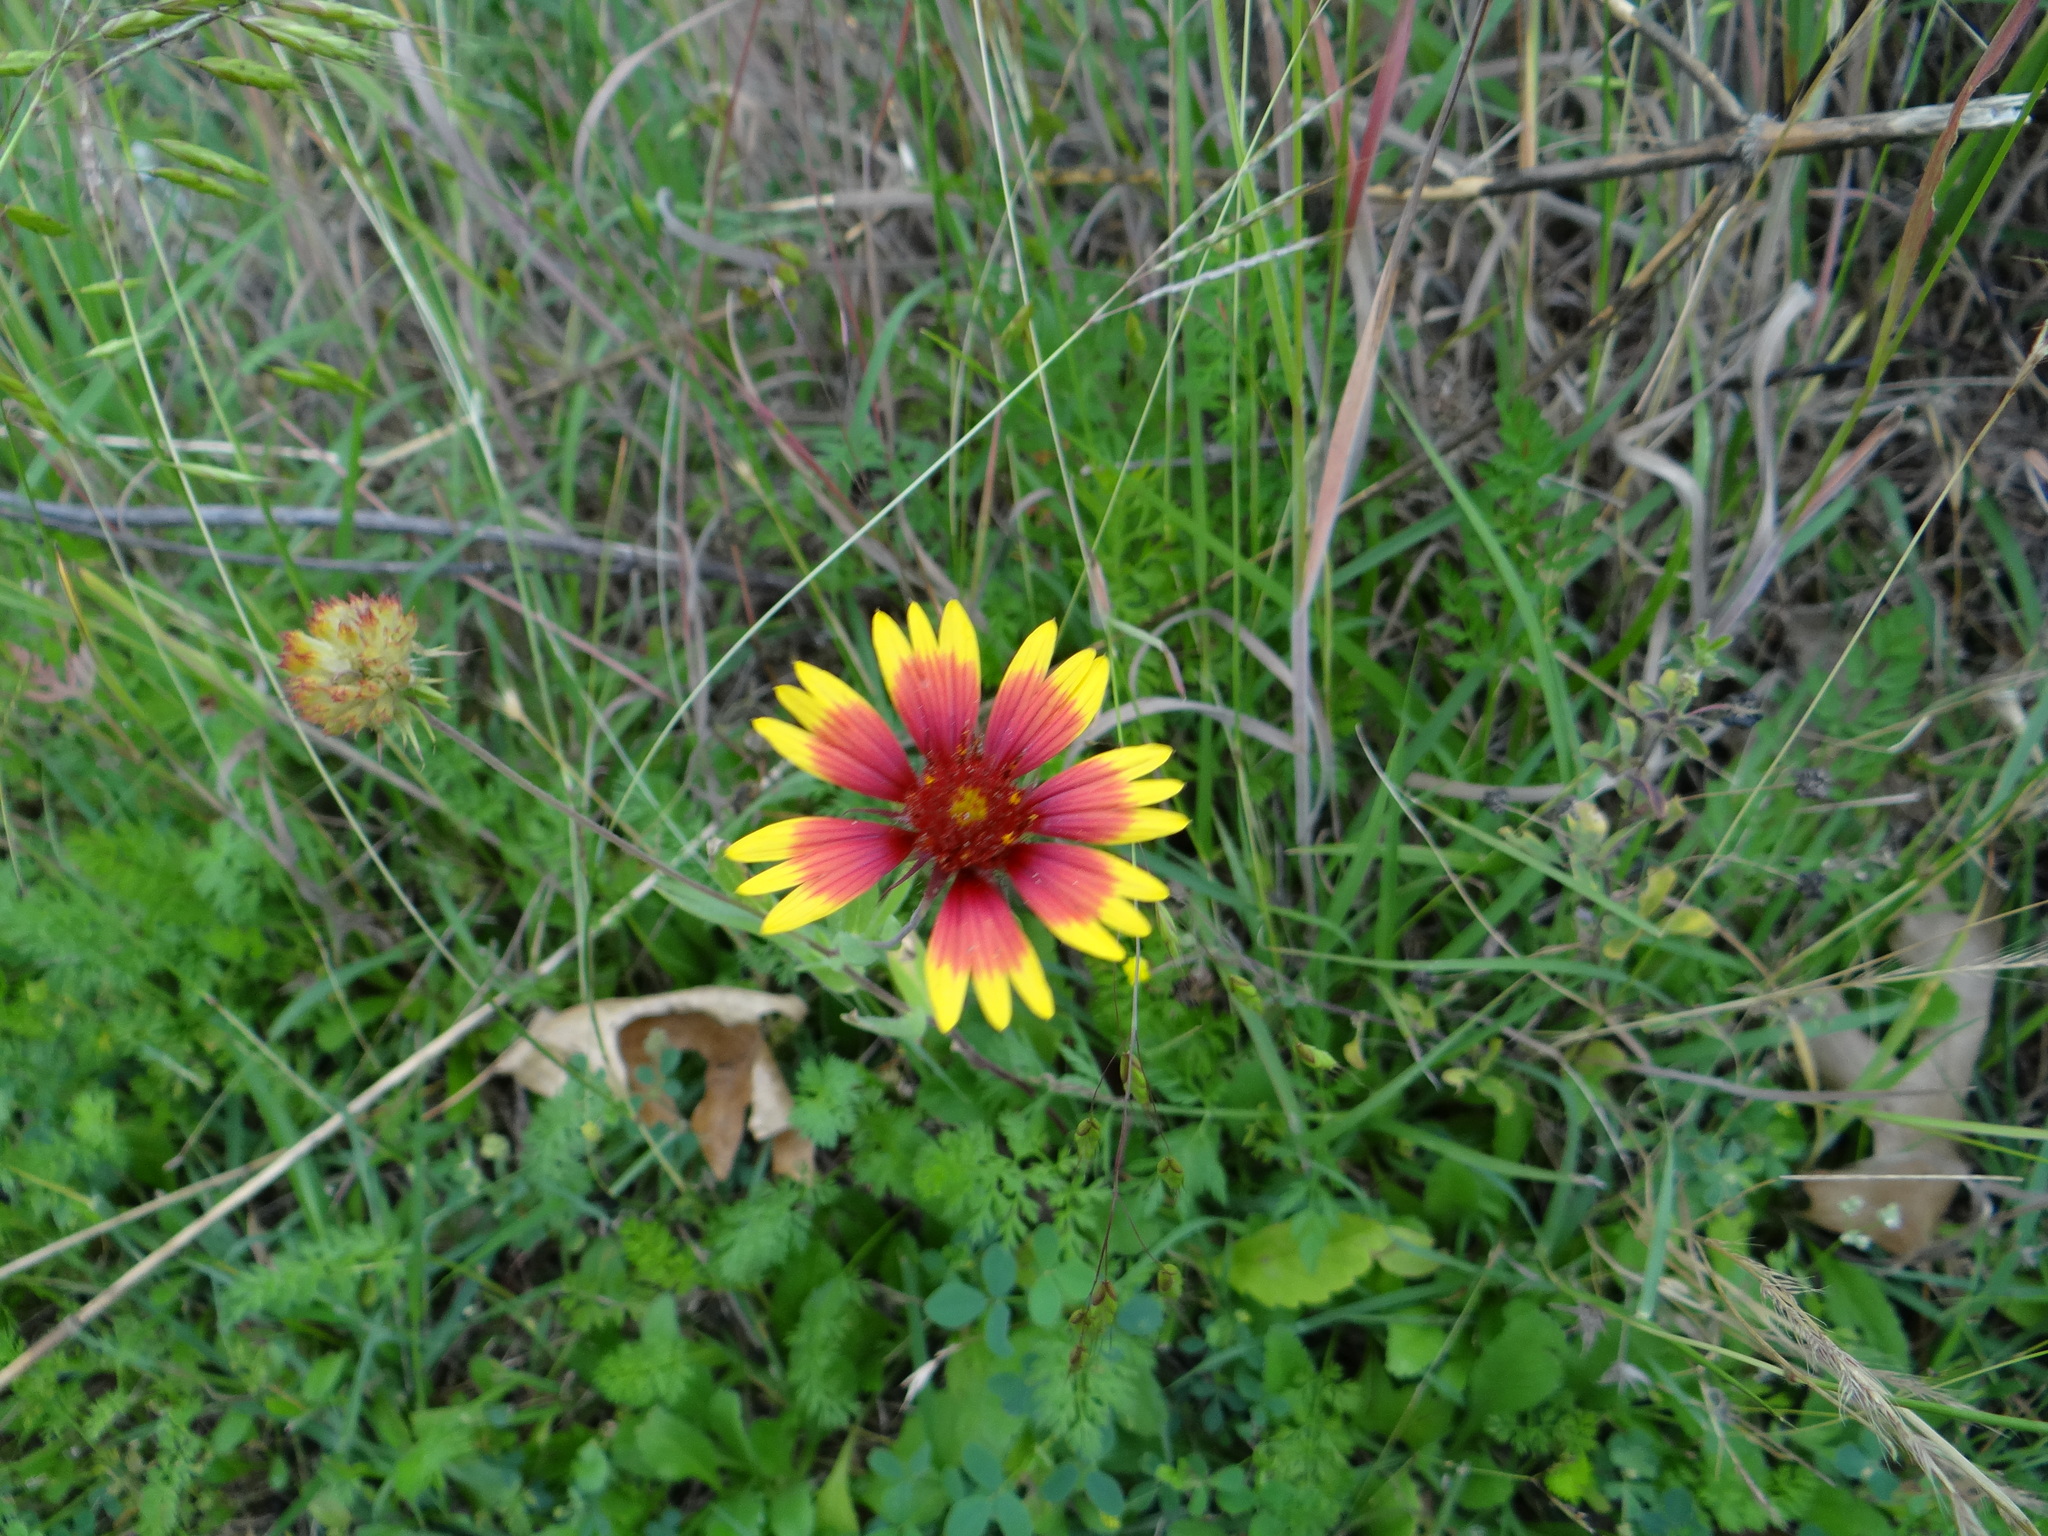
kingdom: Plantae
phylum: Tracheophyta
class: Magnoliopsida
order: Asterales
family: Asteraceae
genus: Gaillardia
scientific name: Gaillardia pulchella
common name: Firewheel
